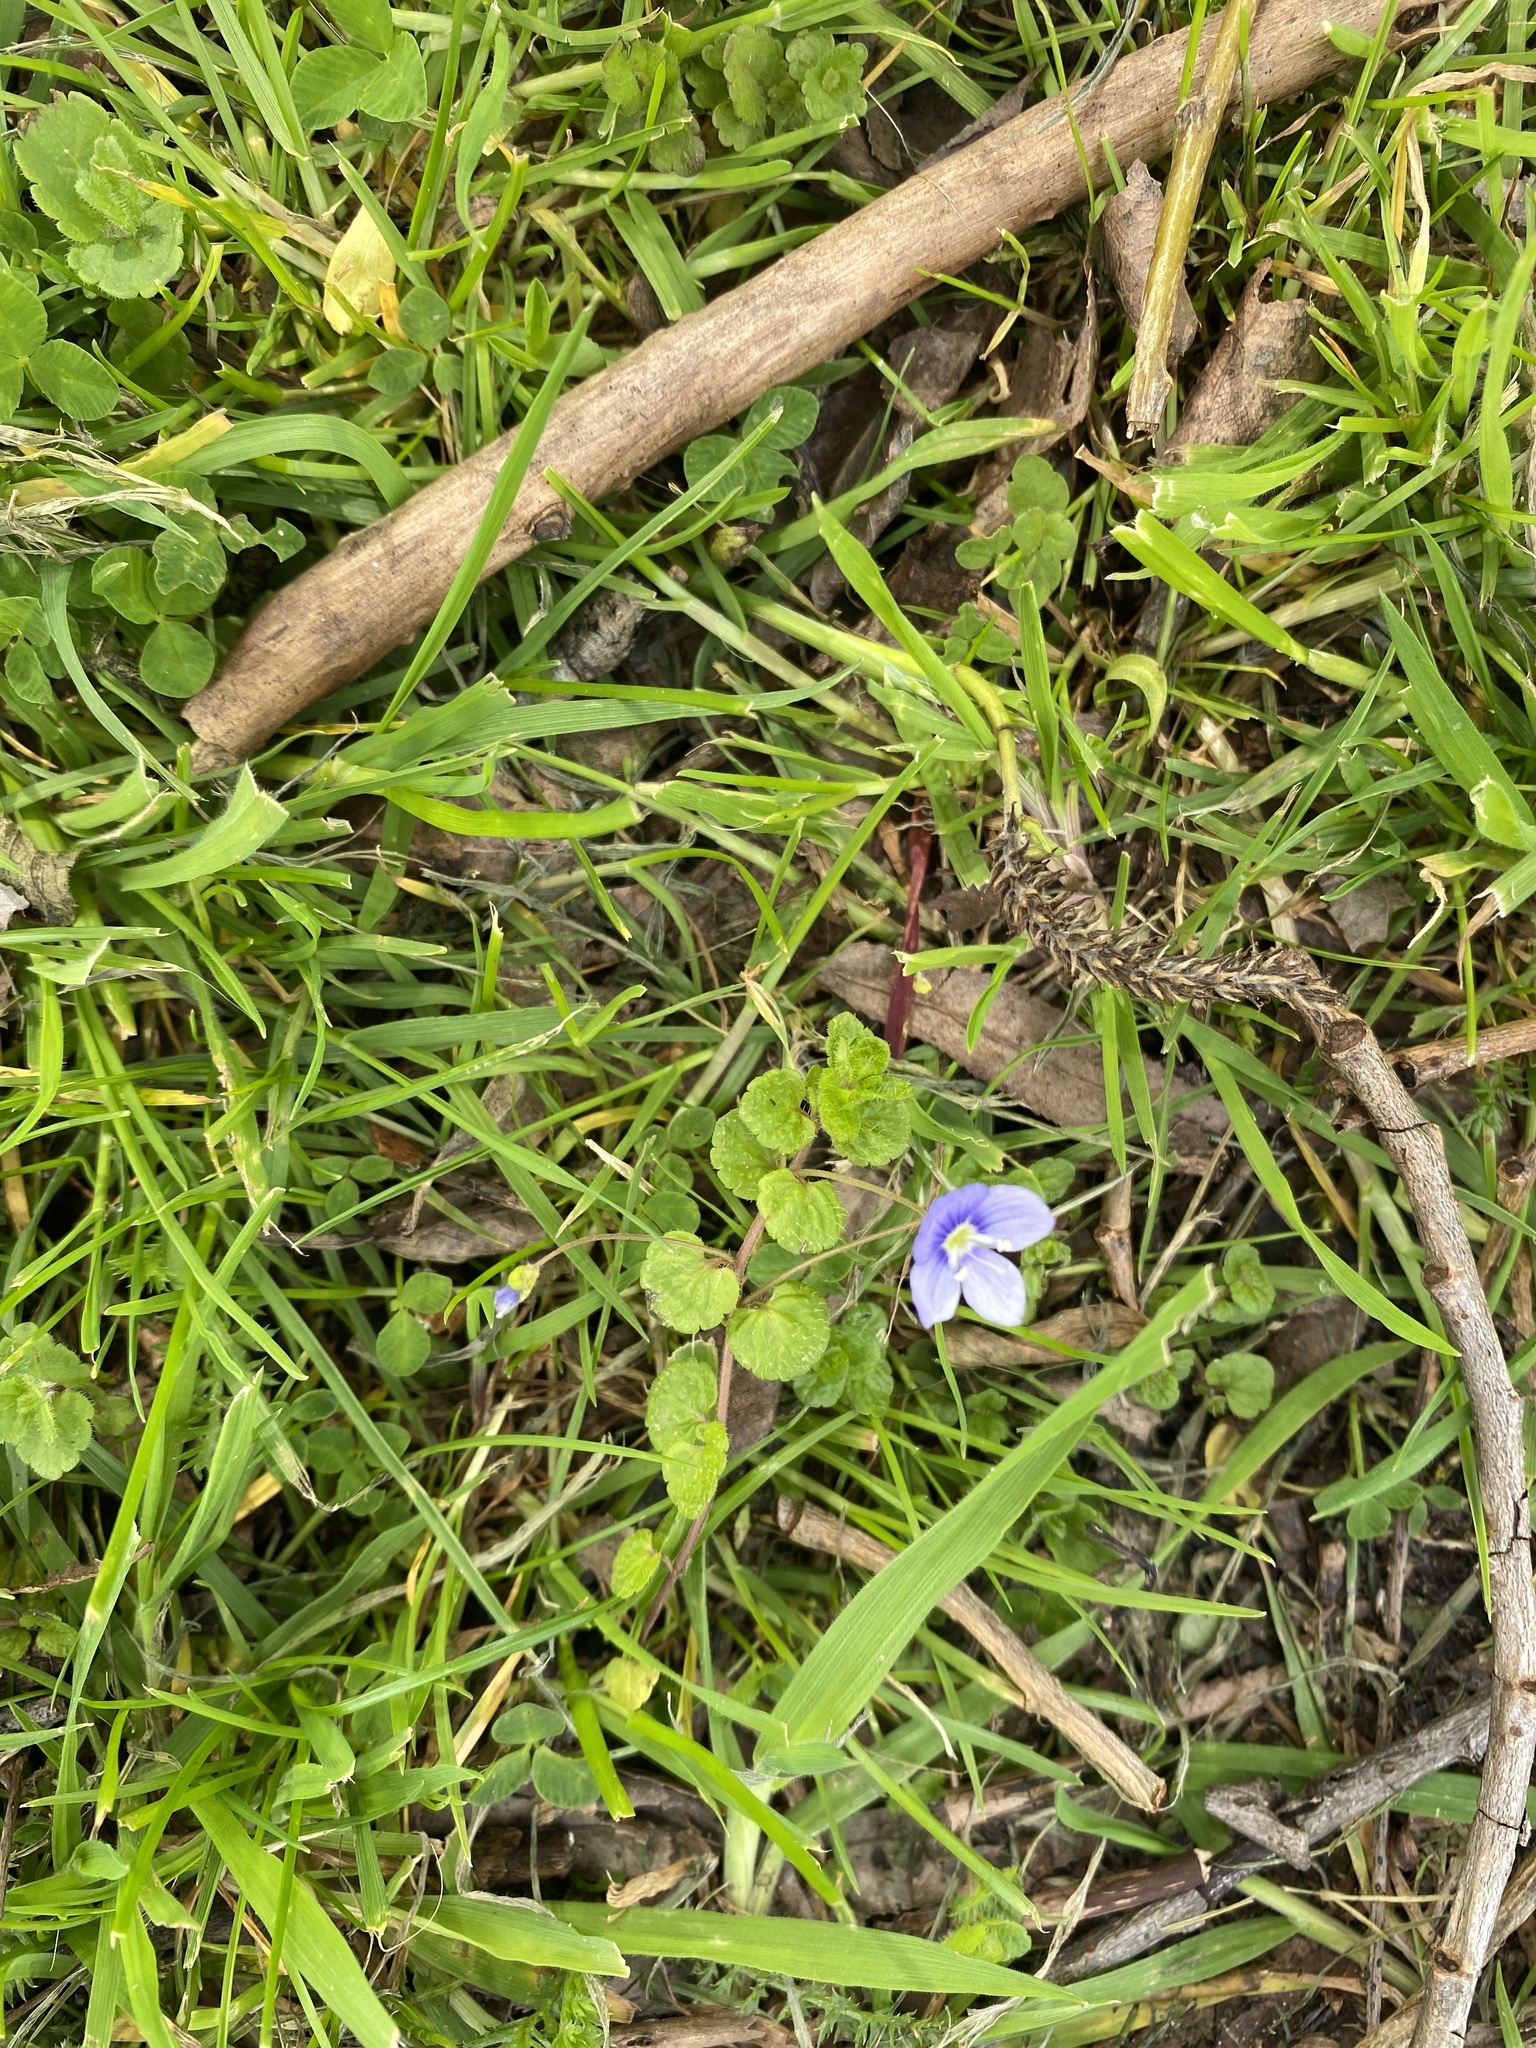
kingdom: Plantae
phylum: Tracheophyta
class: Magnoliopsida
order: Lamiales
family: Plantaginaceae
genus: Veronica
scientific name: Veronica filiformis
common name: Slender speedwell
